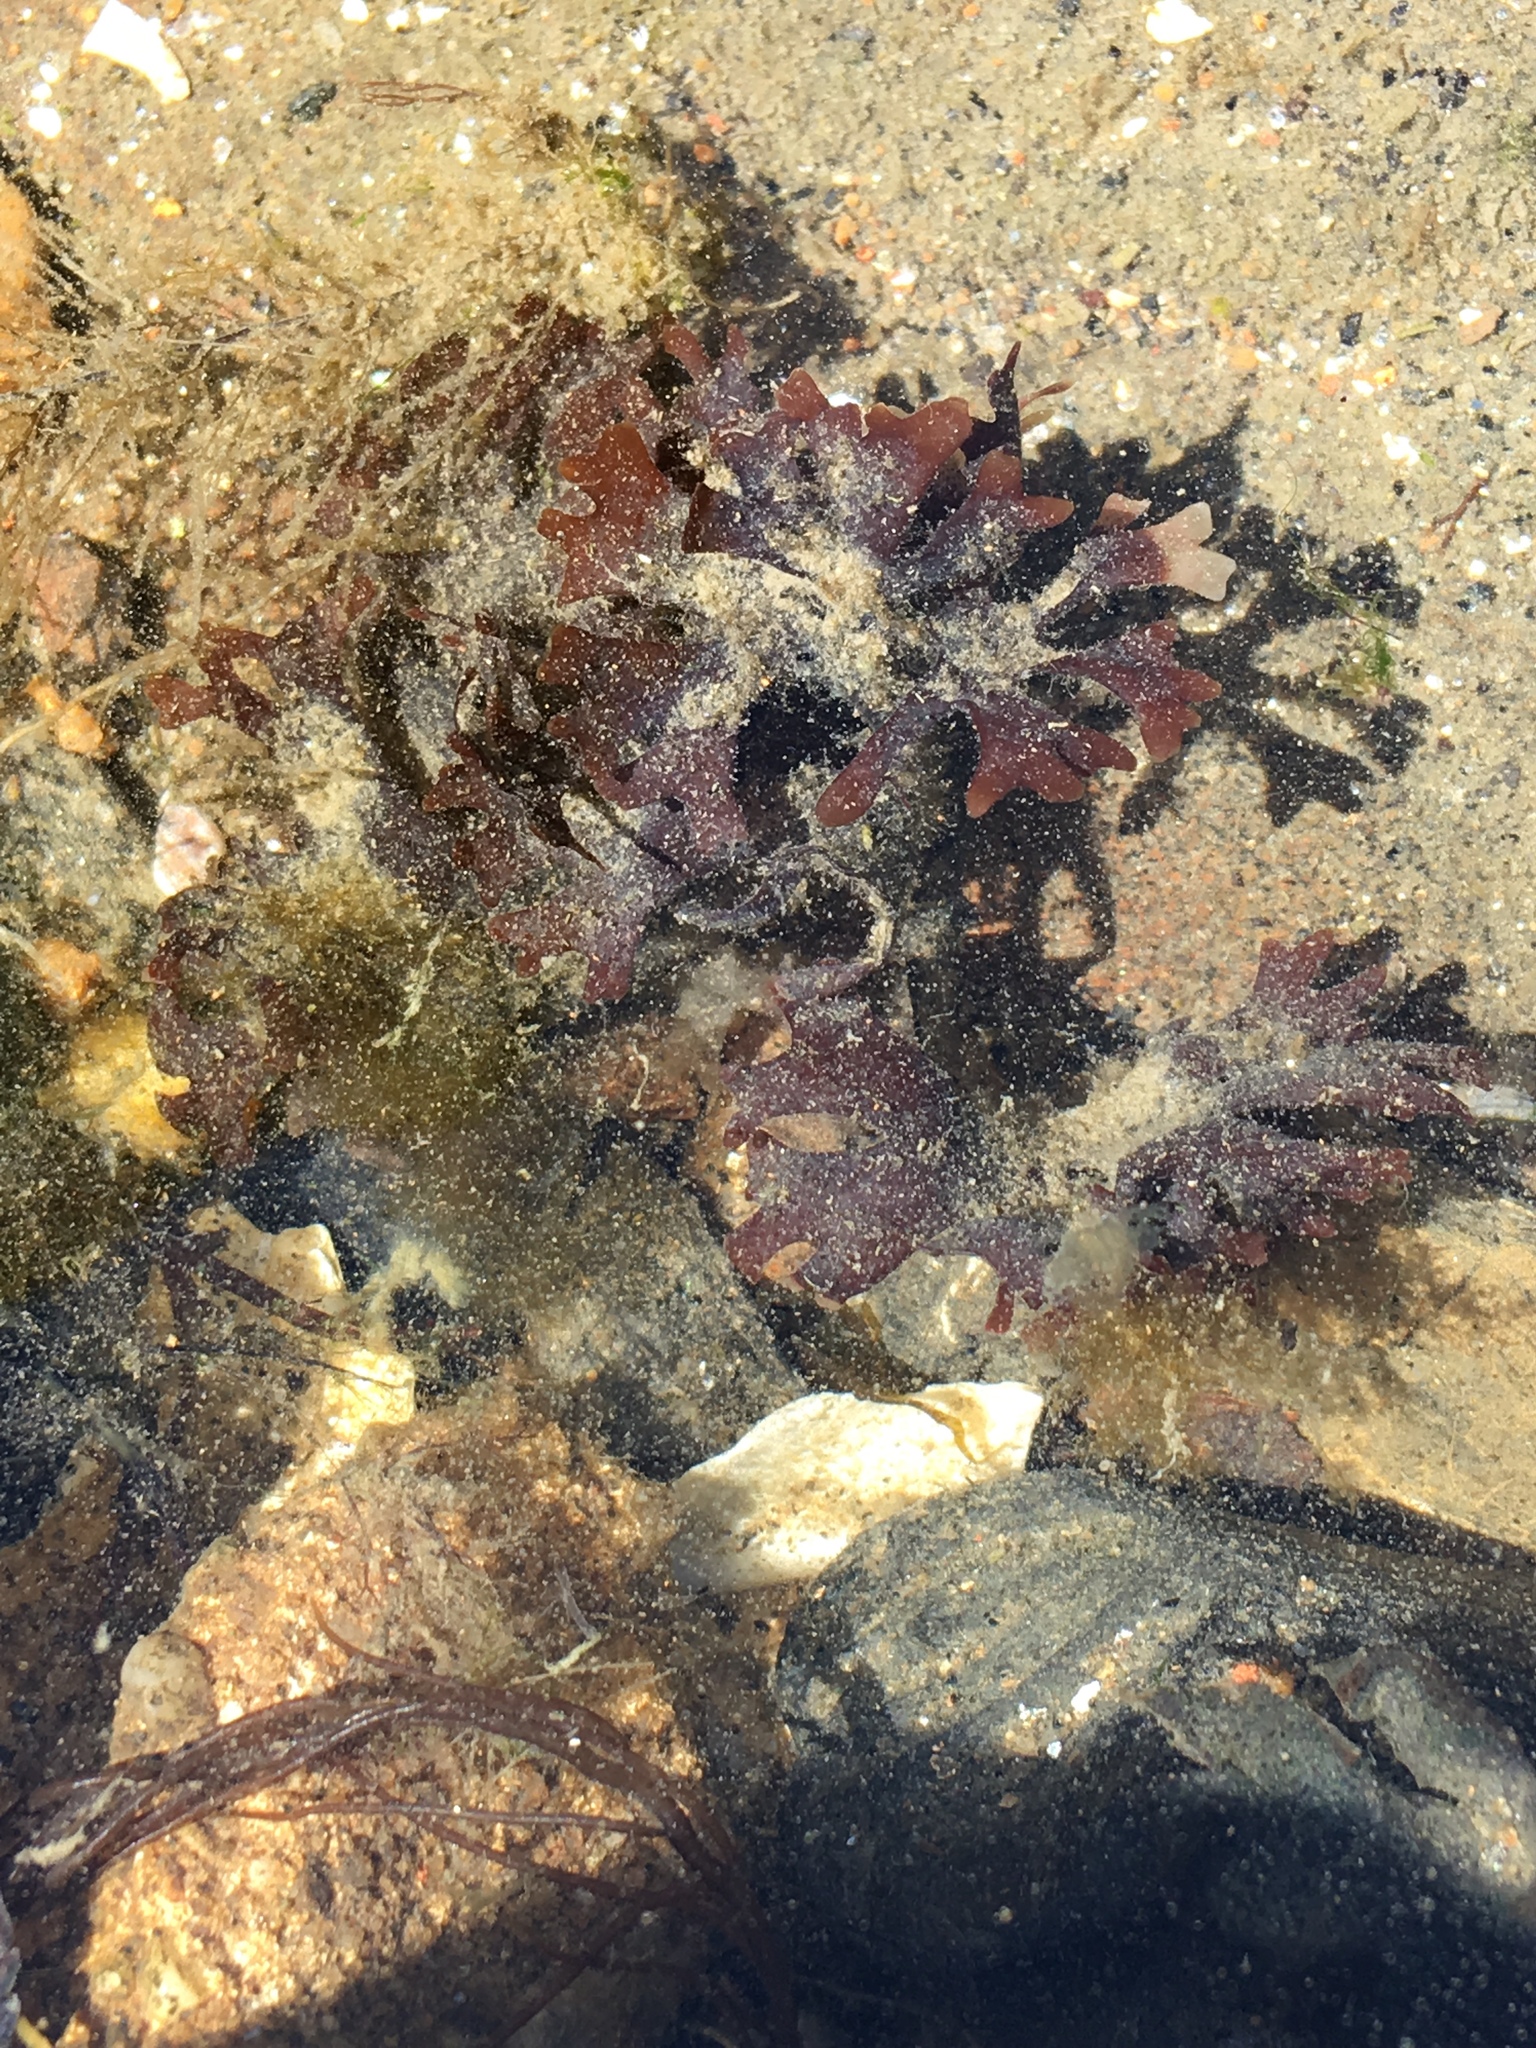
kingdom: Plantae
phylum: Rhodophyta
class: Florideophyceae
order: Gigartinales
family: Gigartinaceae
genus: Chondrus
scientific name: Chondrus crispus
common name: Carrageen
